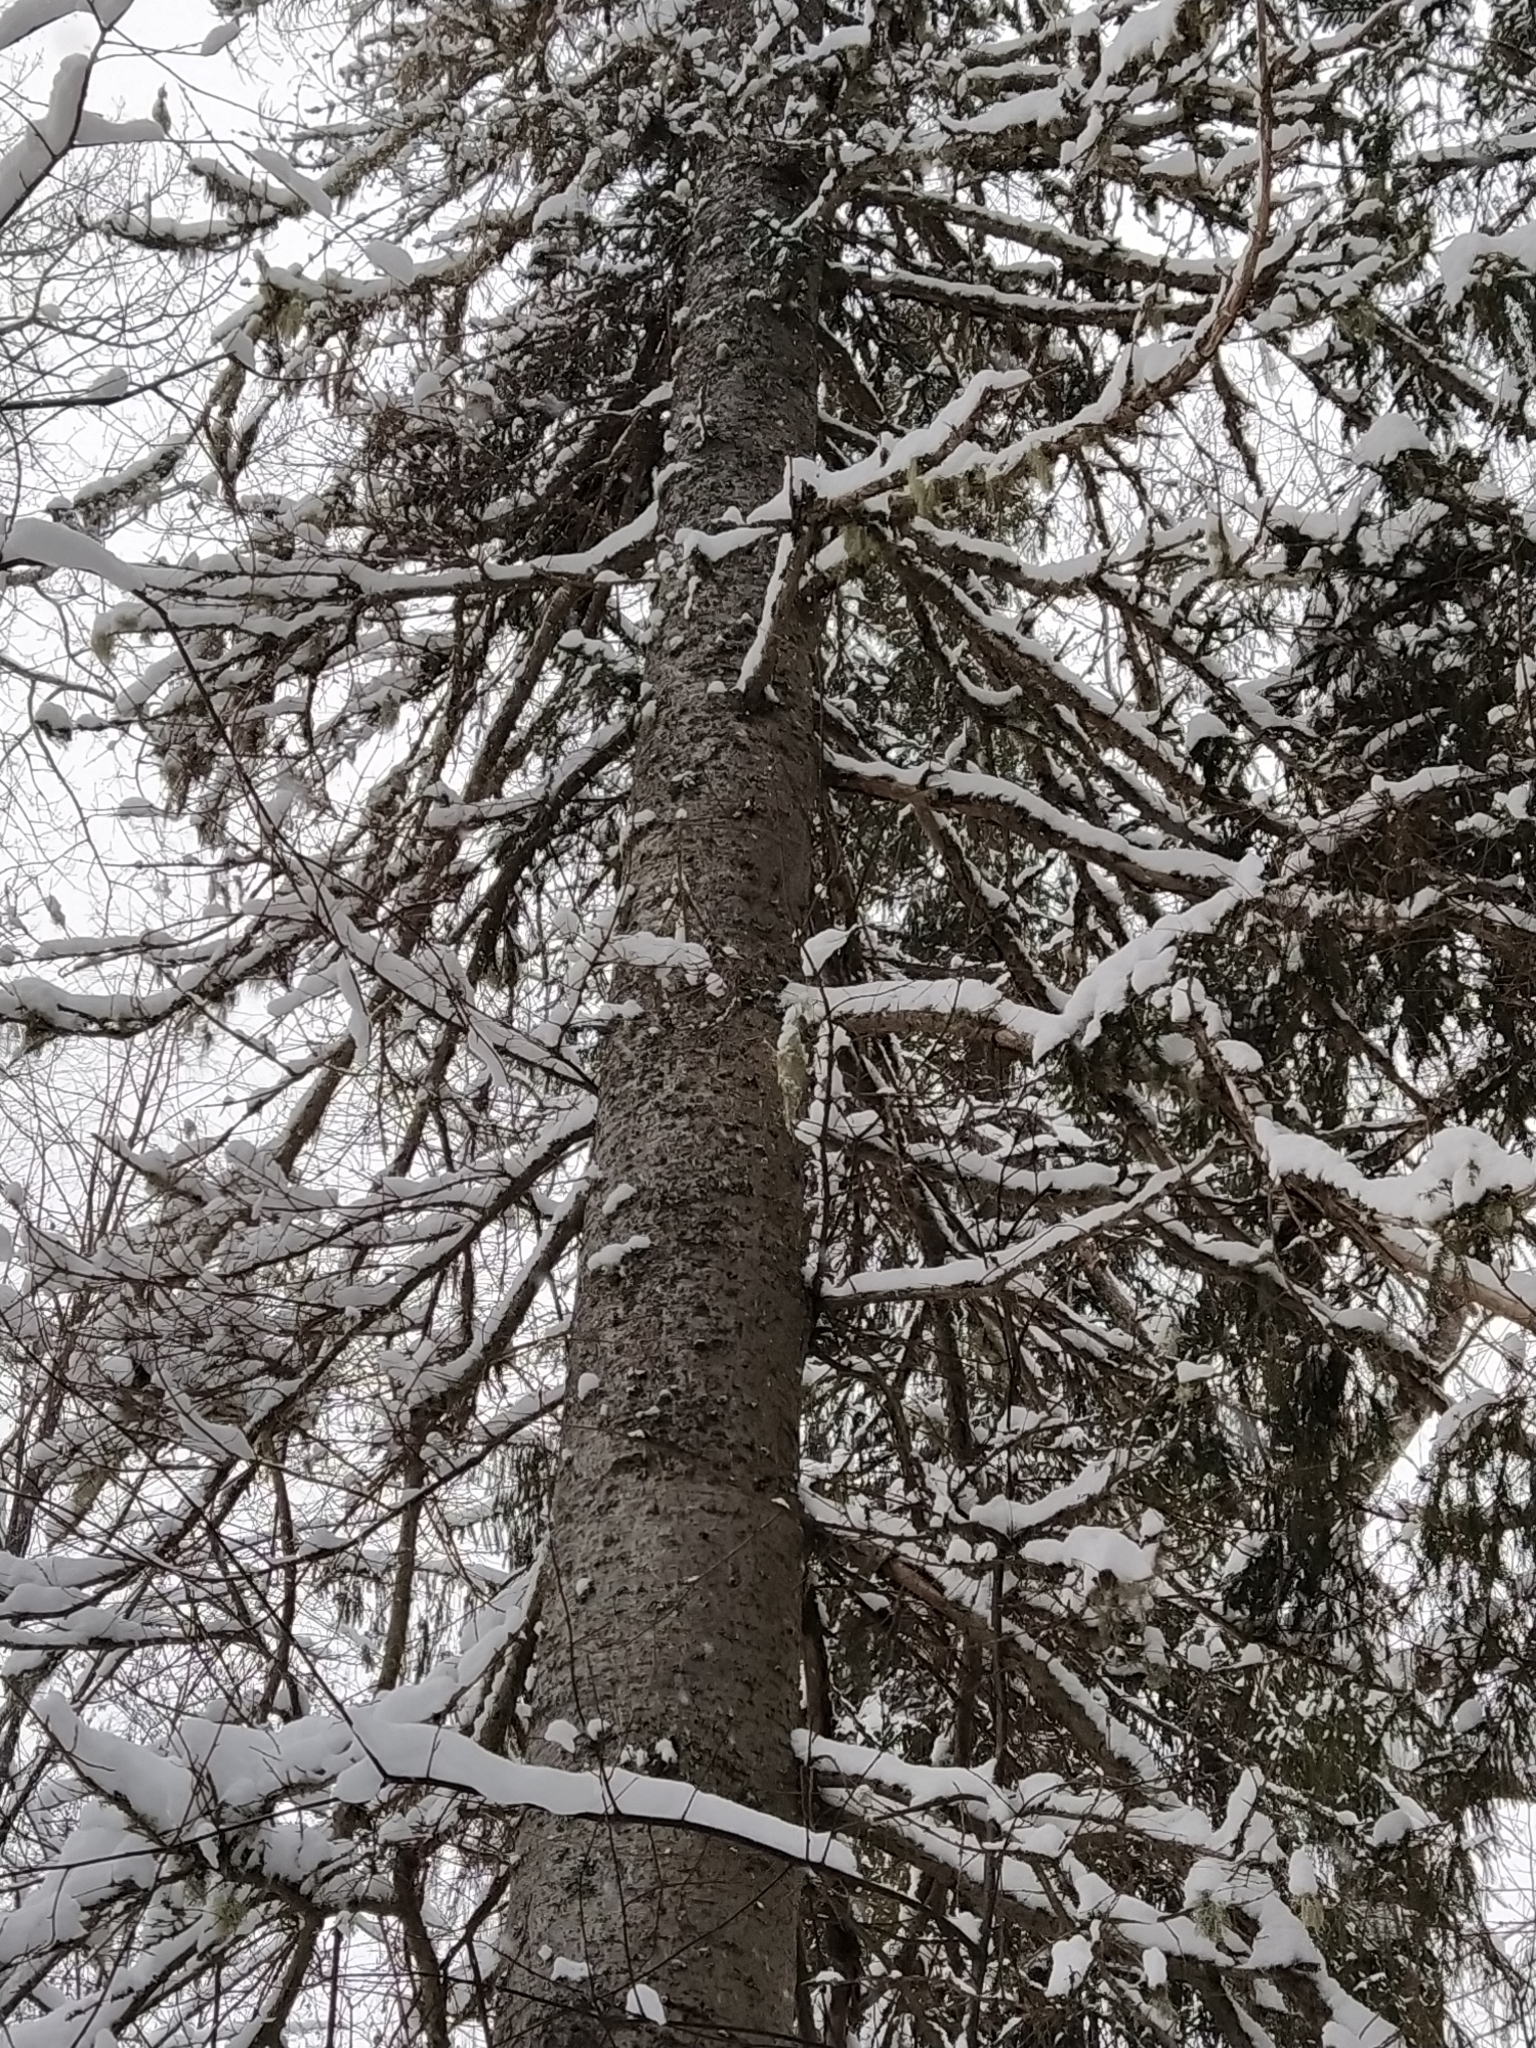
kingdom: Plantae
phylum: Tracheophyta
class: Pinopsida
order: Pinales
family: Pinaceae
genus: Abies
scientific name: Abies sibirica
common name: Siberian fir
